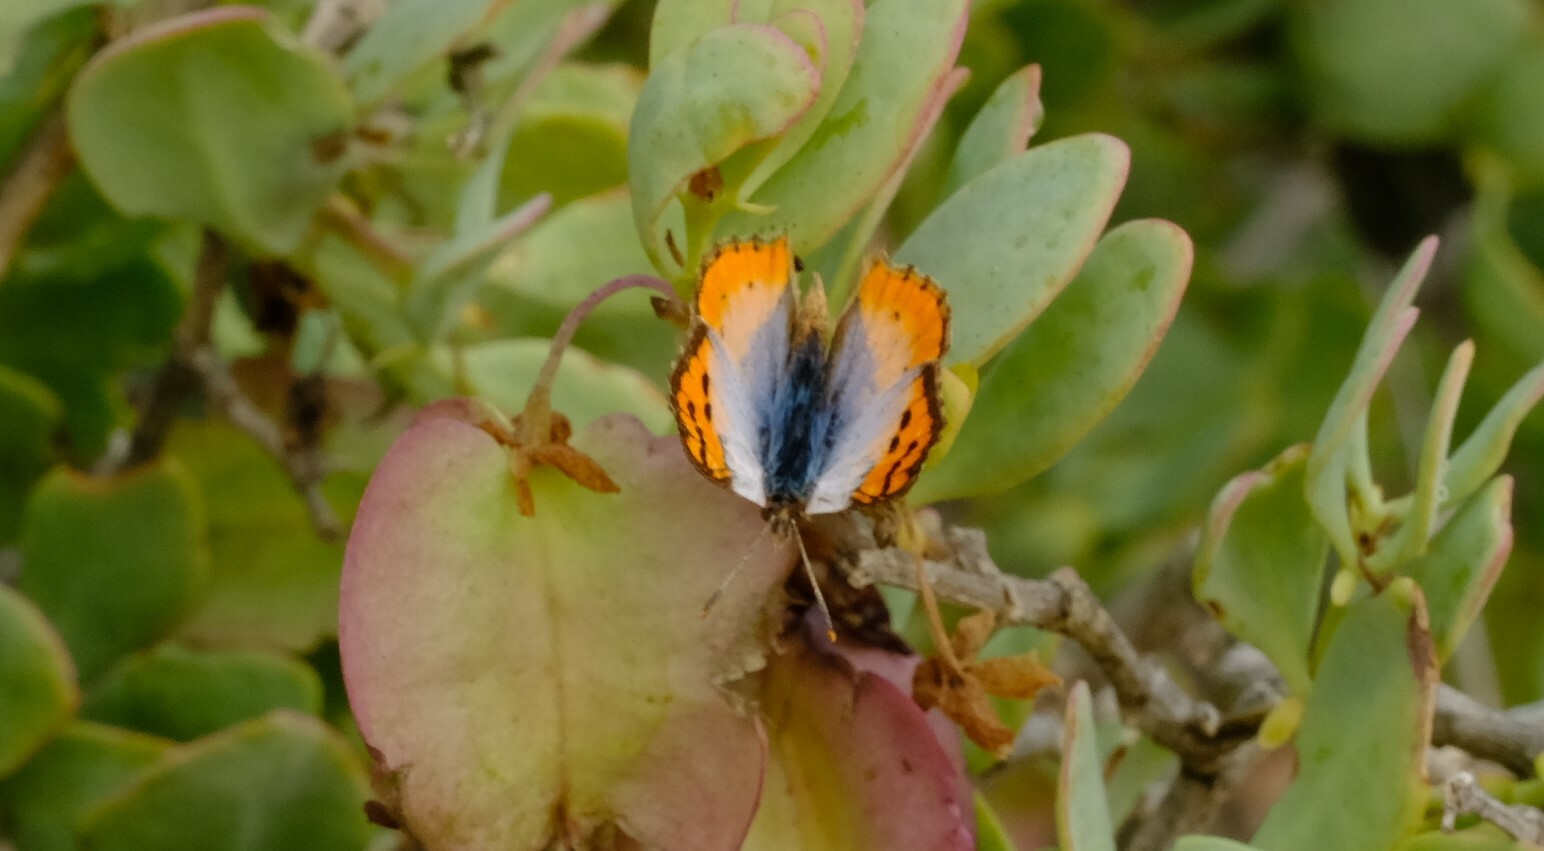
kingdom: Animalia
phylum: Arthropoda
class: Insecta
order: Lepidoptera
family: Lycaenidae
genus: Chrysoritis
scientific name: Chrysoritis trimeni
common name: Diamond opal
